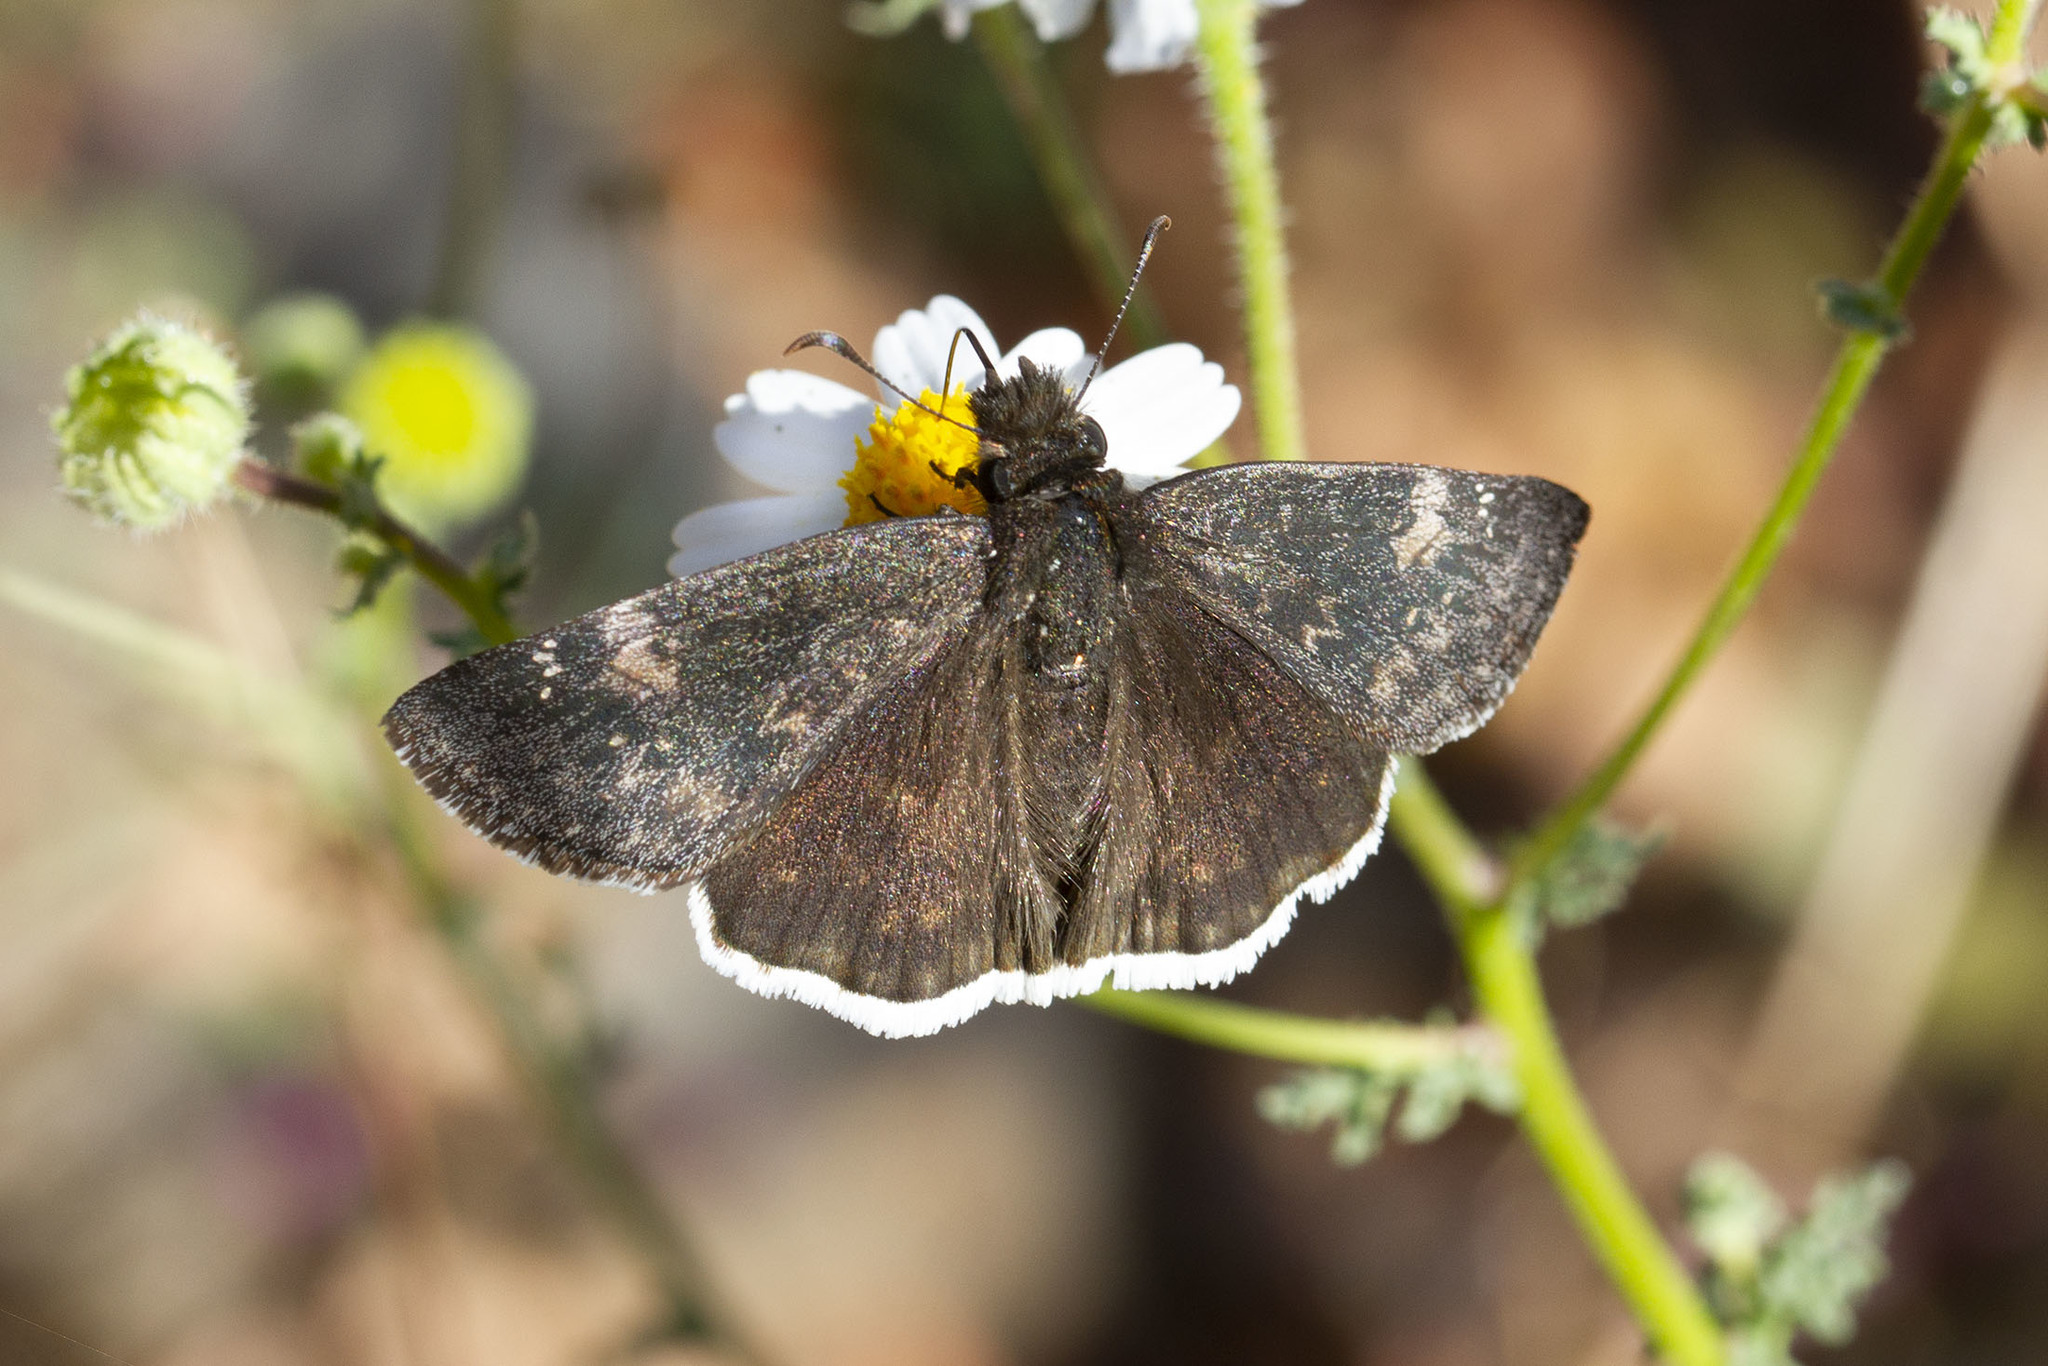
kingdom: Animalia
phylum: Arthropoda
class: Insecta
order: Lepidoptera
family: Hesperiidae
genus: Erynnis
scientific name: Erynnis funeralis
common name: Funereal duskywing
